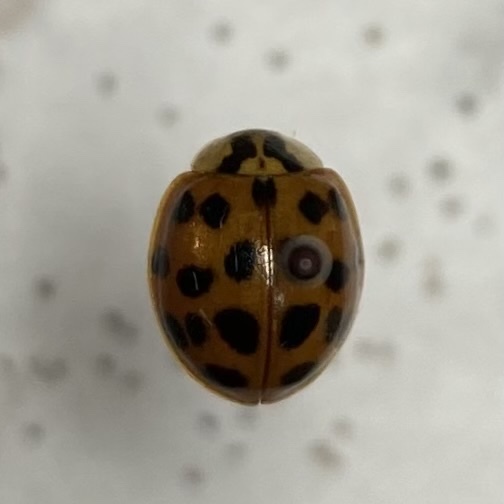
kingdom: Animalia
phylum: Arthropoda
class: Insecta
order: Coleoptera
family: Coccinellidae
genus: Harmonia
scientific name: Harmonia axyridis
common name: Harlequin ladybird
